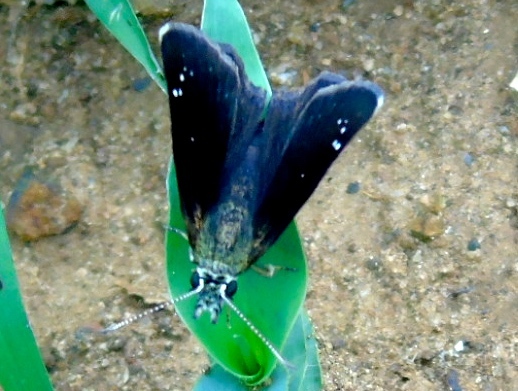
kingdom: Animalia
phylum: Arthropoda
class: Insecta
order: Lepidoptera
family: Hesperiidae
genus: Pholisora
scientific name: Pholisora catullus
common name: Common sootywing
